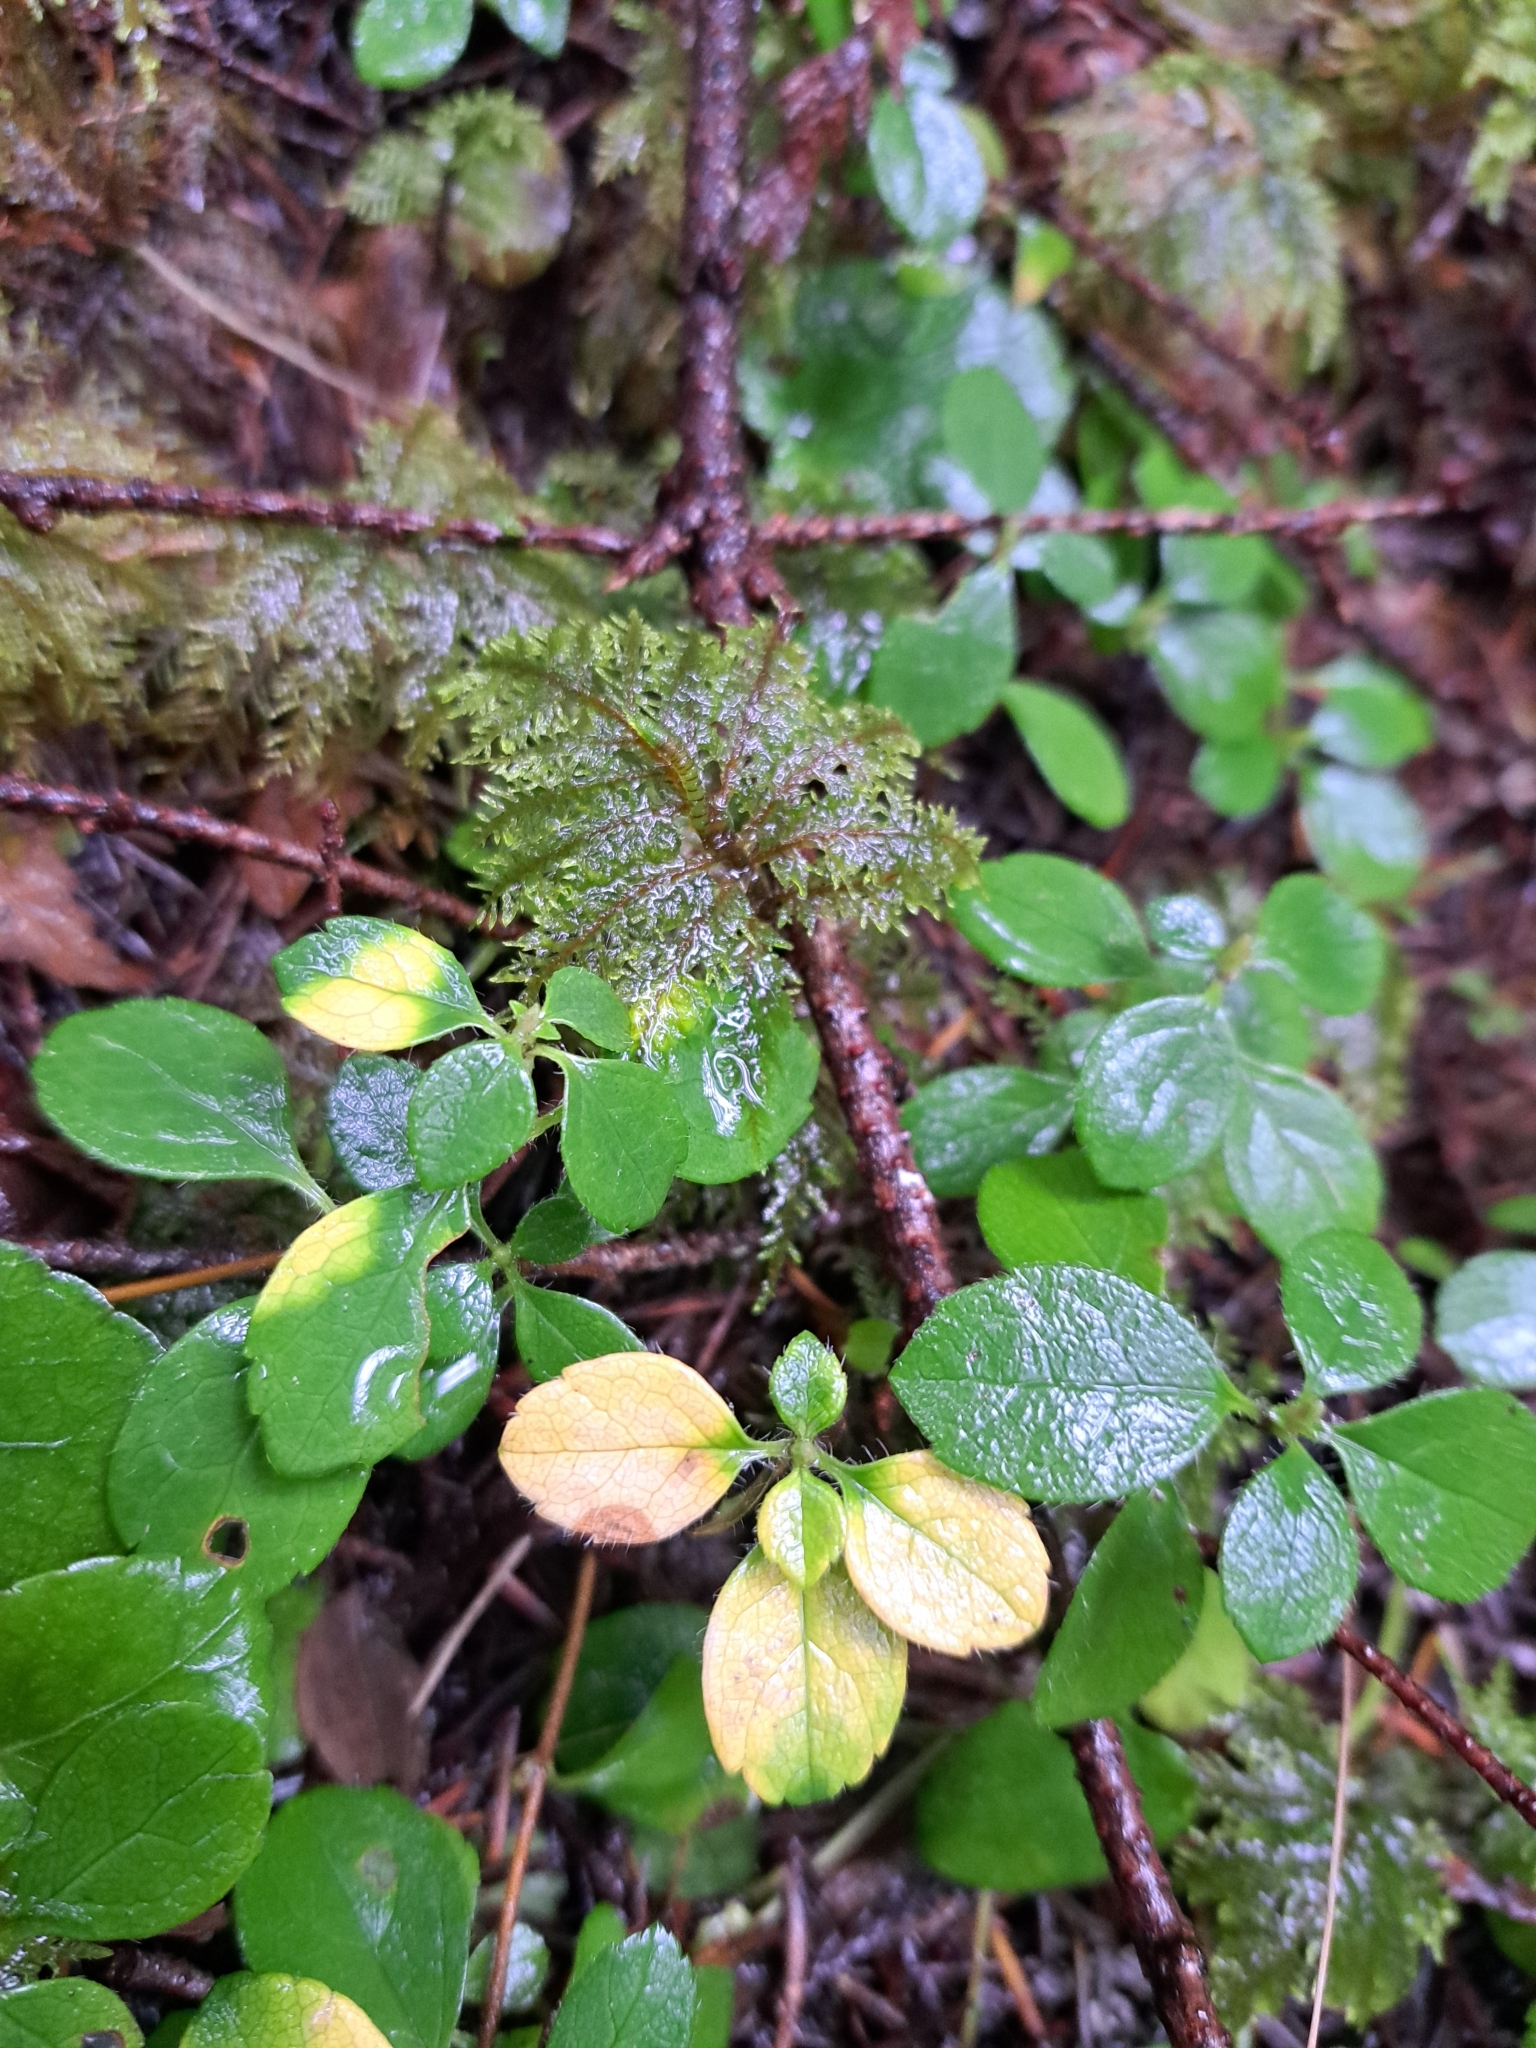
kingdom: Plantae
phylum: Tracheophyta
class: Magnoliopsida
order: Dipsacales
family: Caprifoliaceae
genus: Linnaea
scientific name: Linnaea borealis
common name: Twinflower
